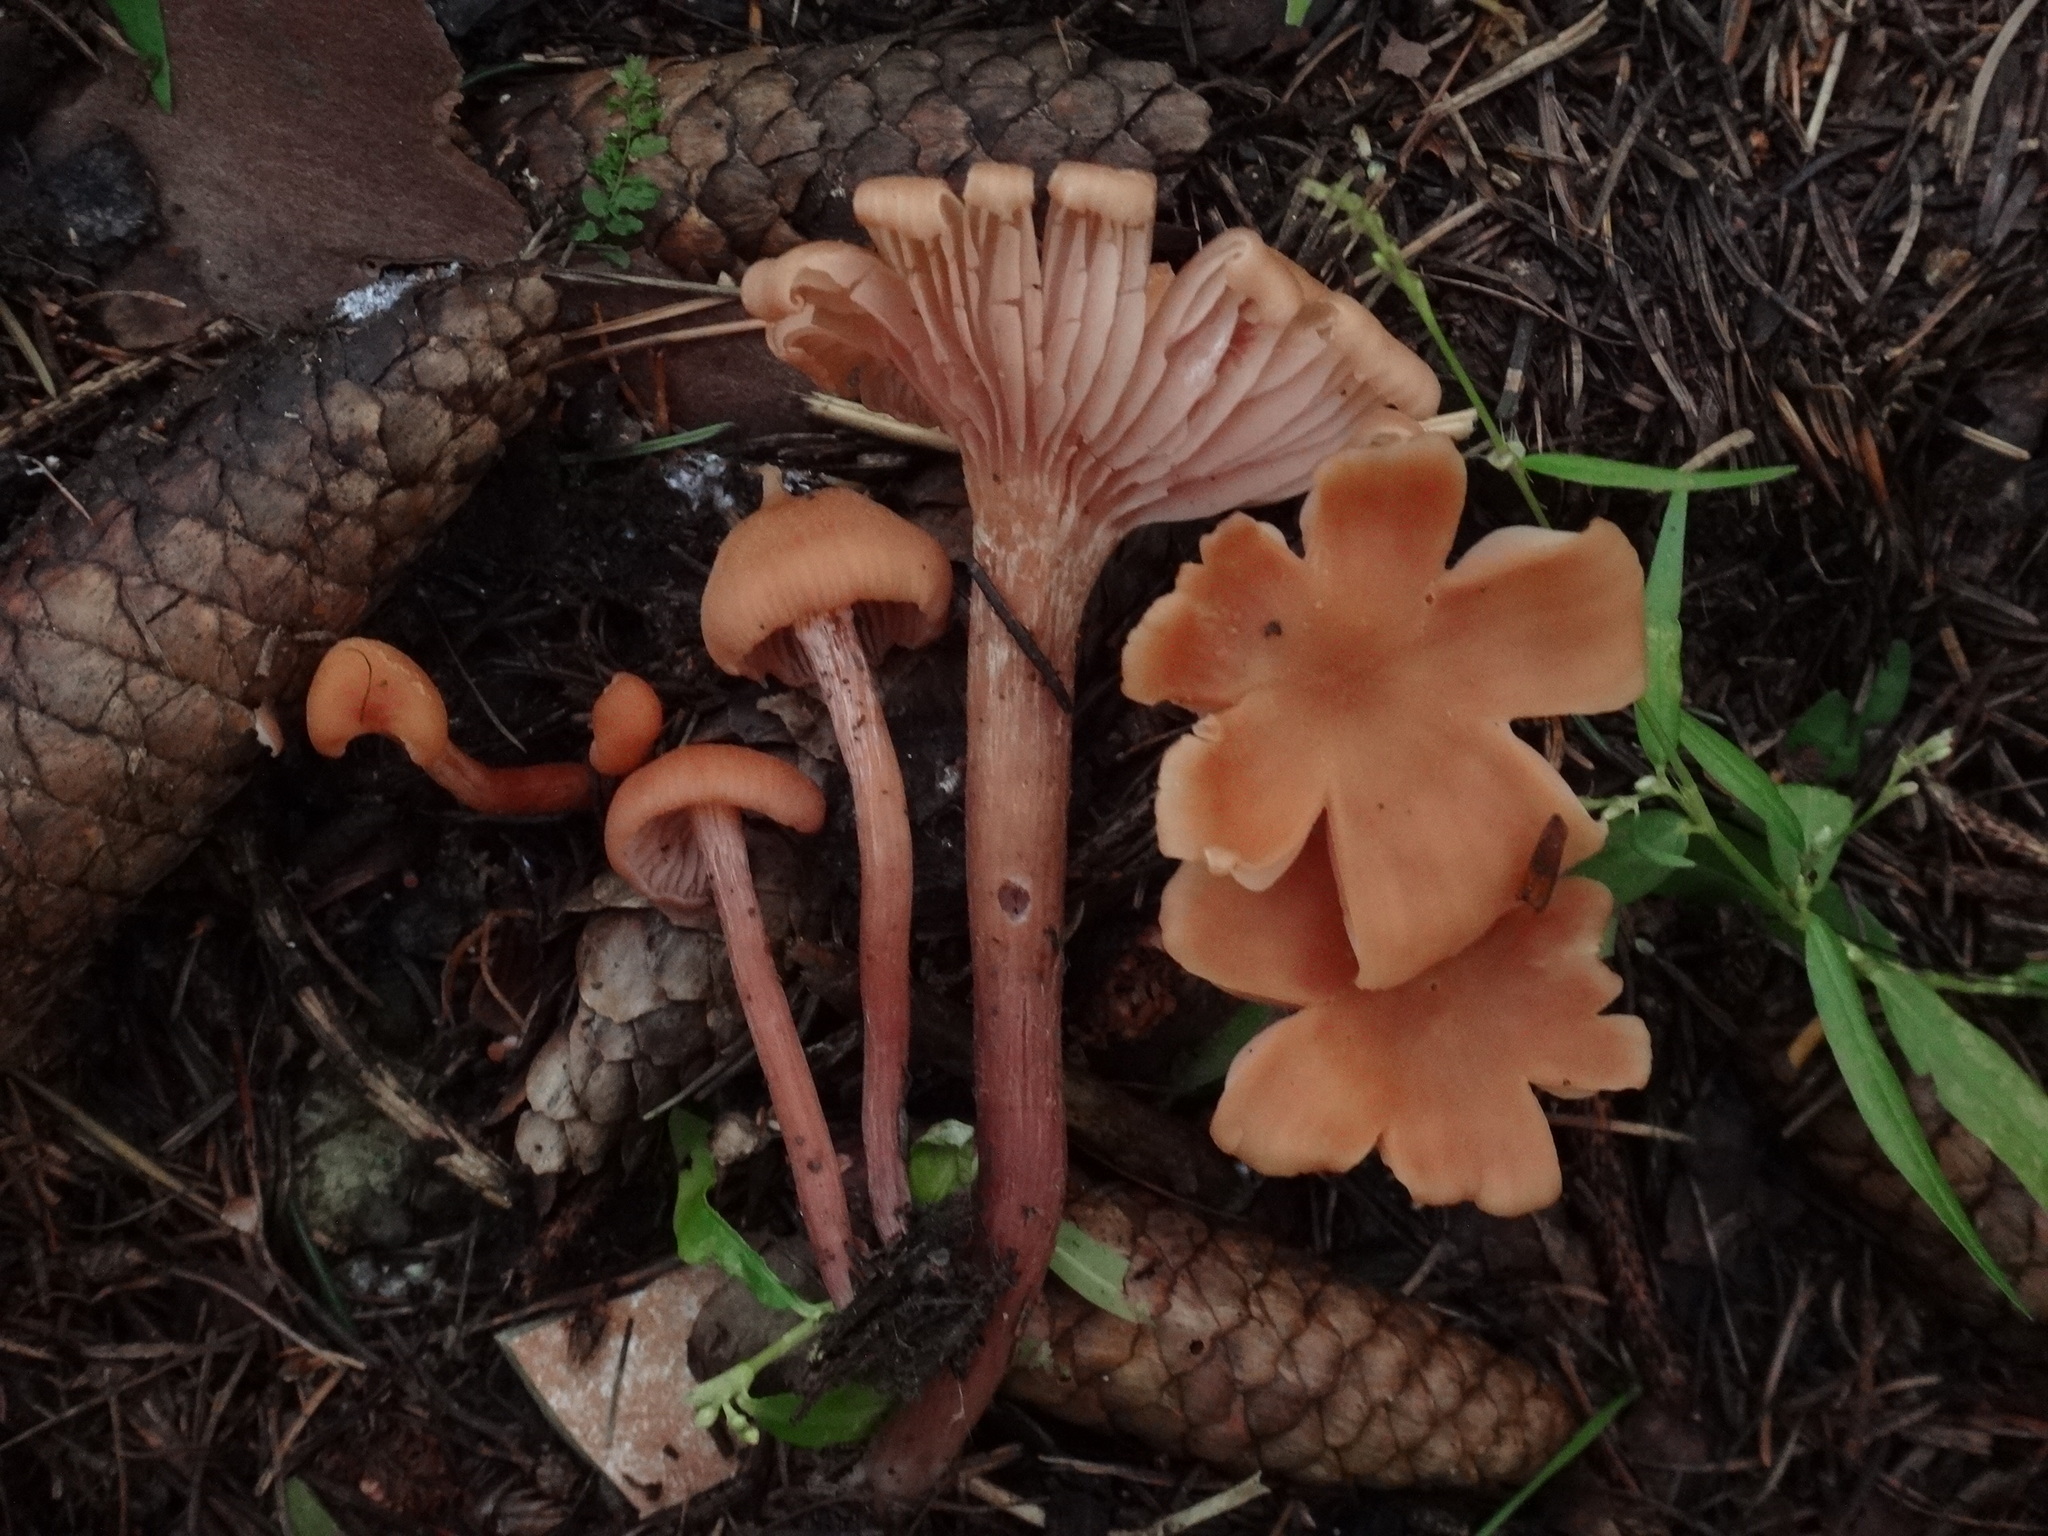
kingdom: Fungi
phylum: Basidiomycota
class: Agaricomycetes
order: Agaricales
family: Hydnangiaceae
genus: Laccaria
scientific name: Laccaria laccata
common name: Deceiver
